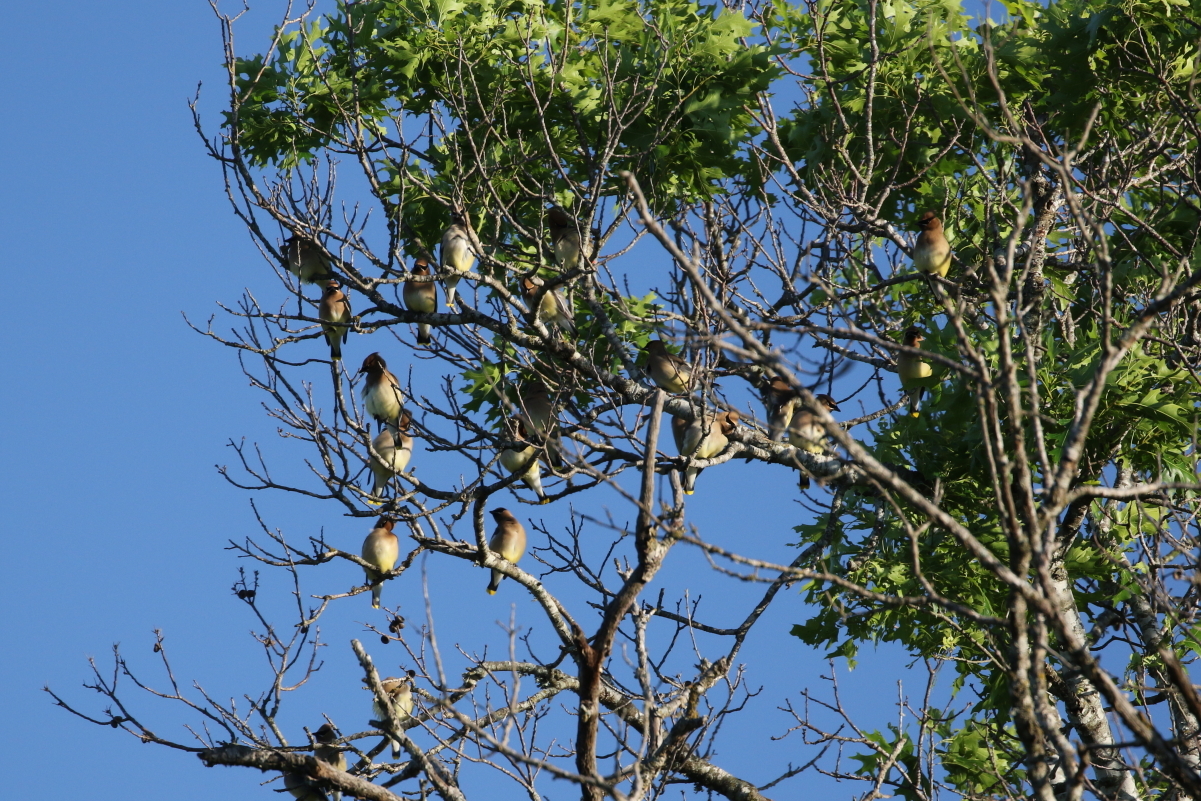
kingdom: Animalia
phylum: Chordata
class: Aves
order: Passeriformes
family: Bombycillidae
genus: Bombycilla
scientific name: Bombycilla cedrorum
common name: Cedar waxwing
